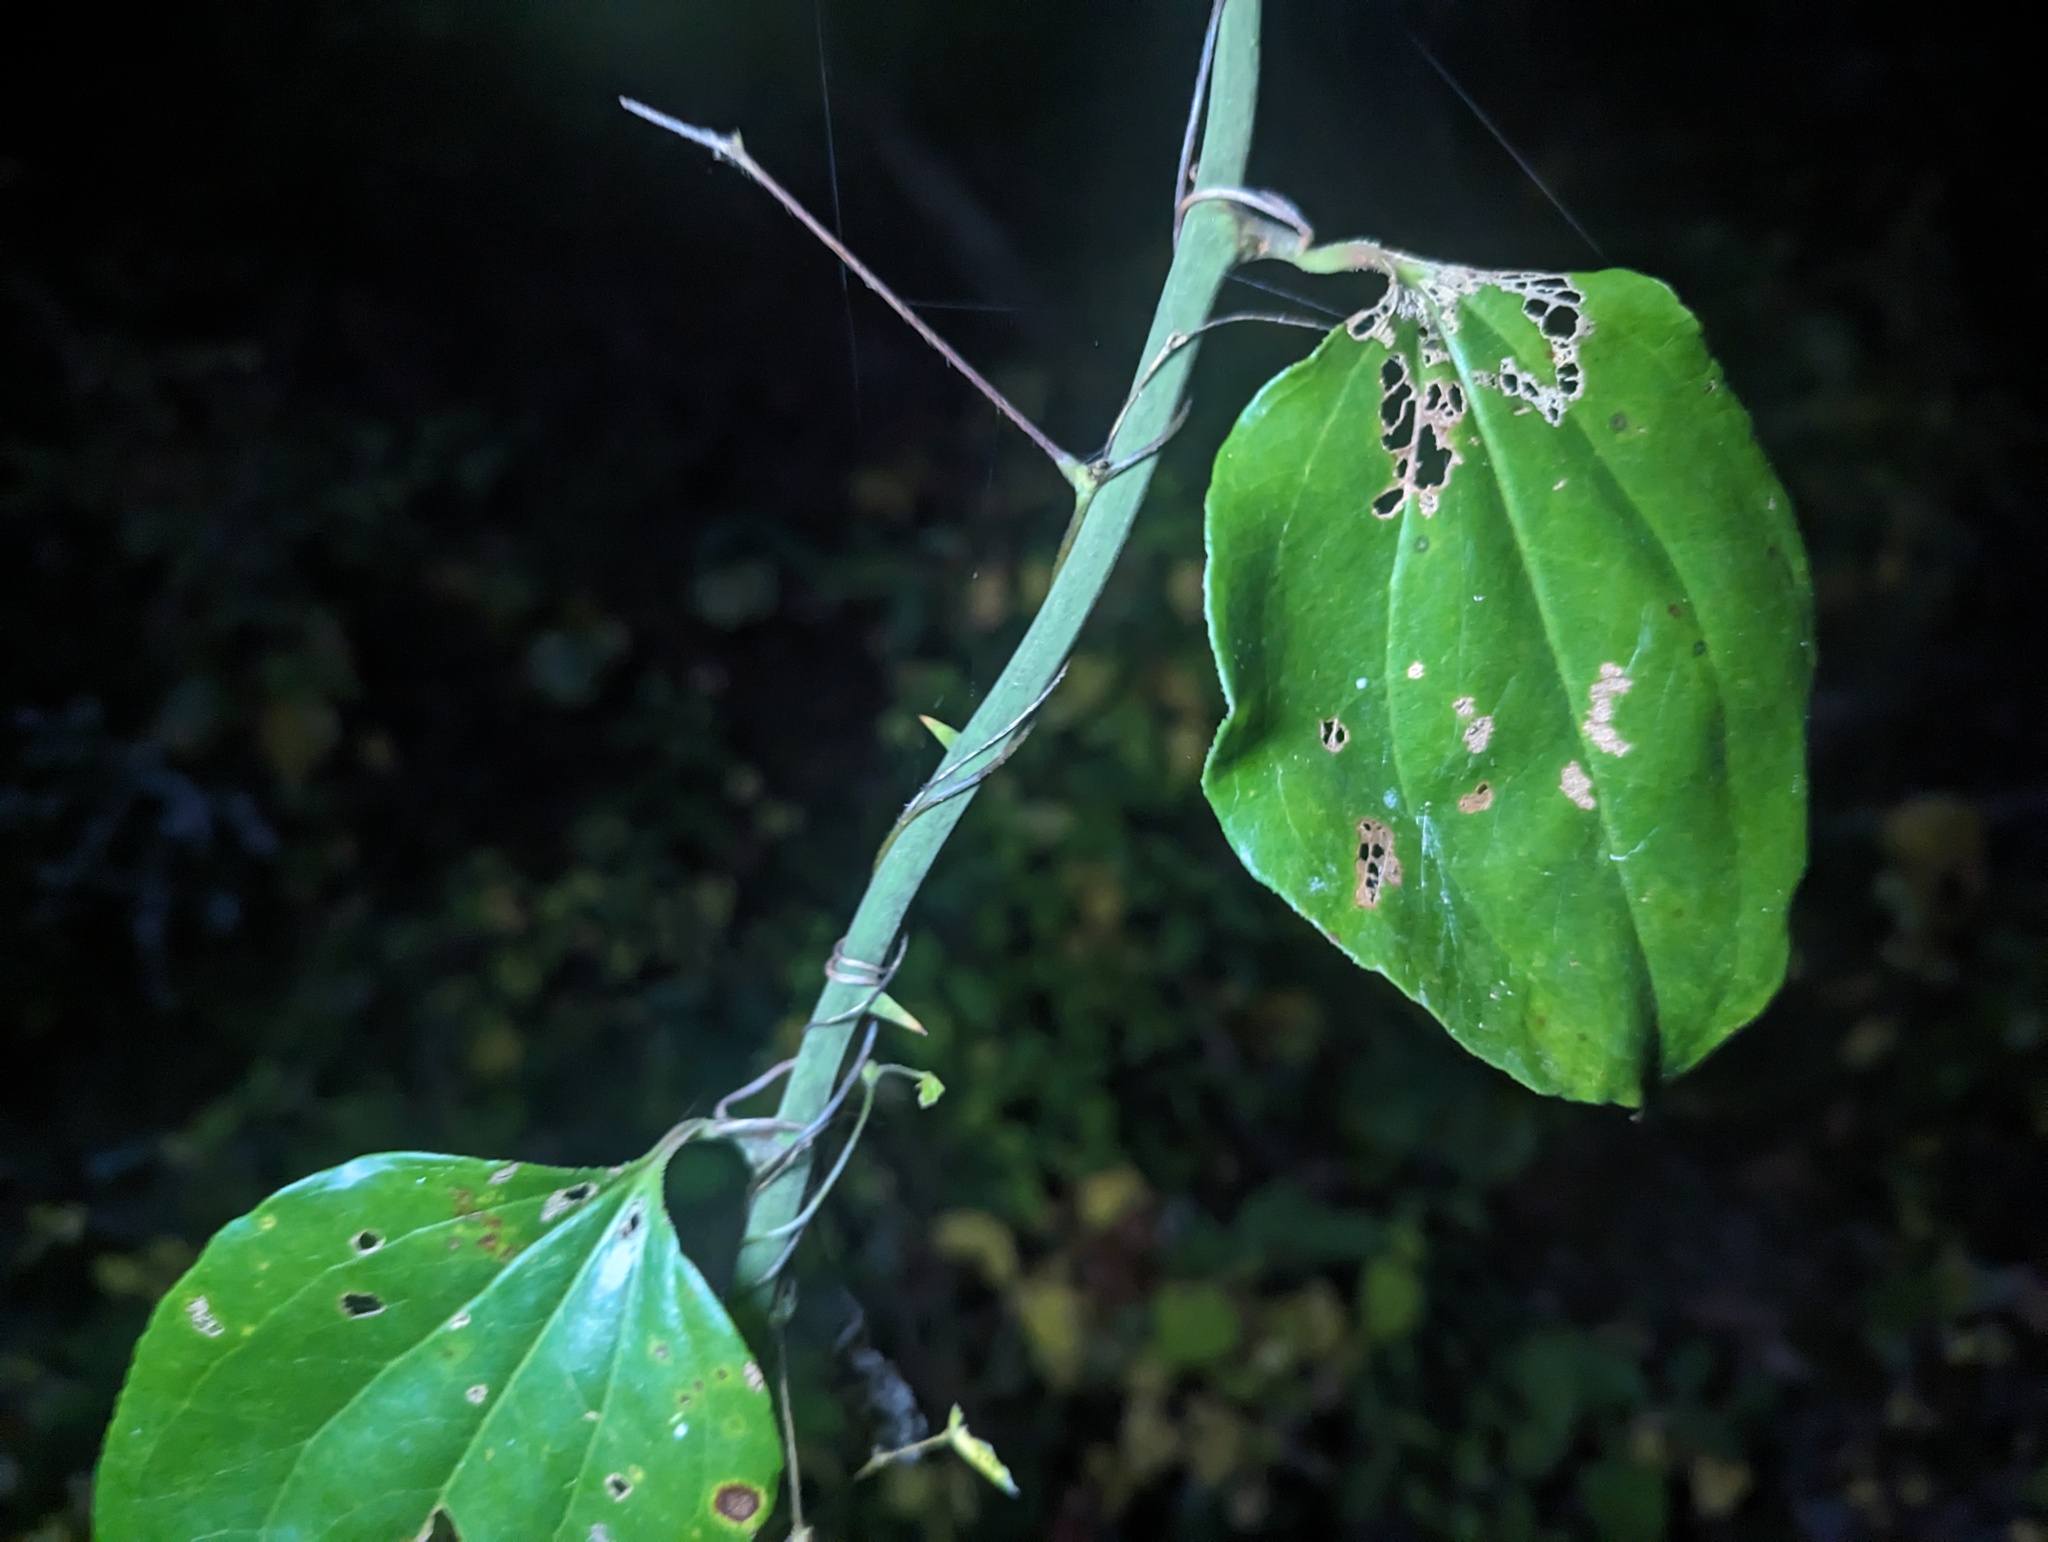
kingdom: Plantae
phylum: Tracheophyta
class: Liliopsida
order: Liliales
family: Smilacaceae
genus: Smilax
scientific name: Smilax rotundifolia
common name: Bullbriar
